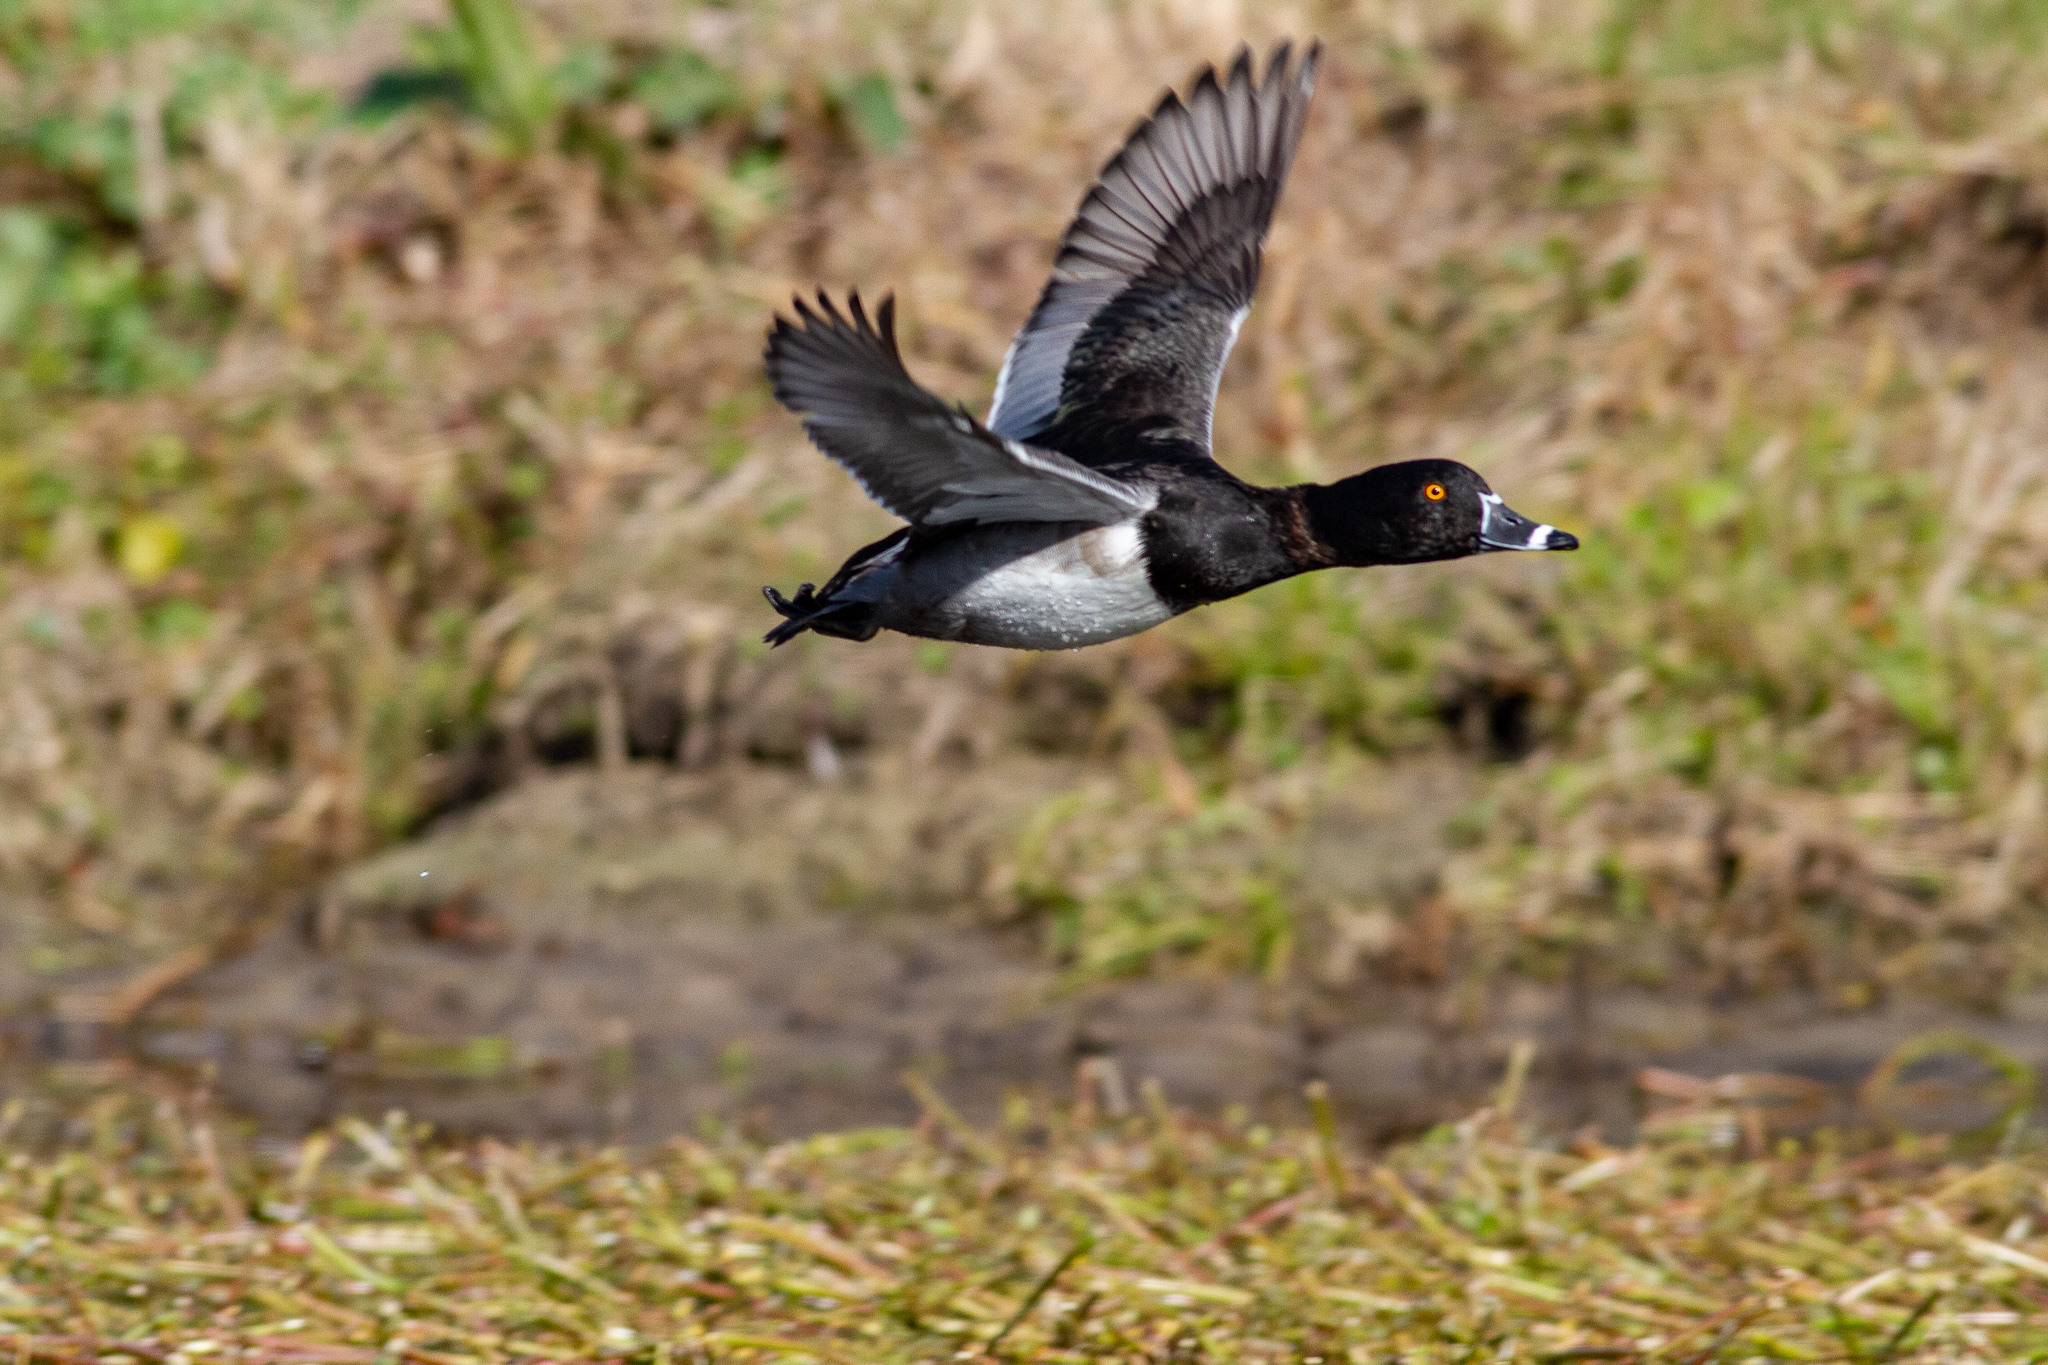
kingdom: Animalia
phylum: Chordata
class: Aves
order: Anseriformes
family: Anatidae
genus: Aythya
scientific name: Aythya collaris
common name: Ring-necked duck
